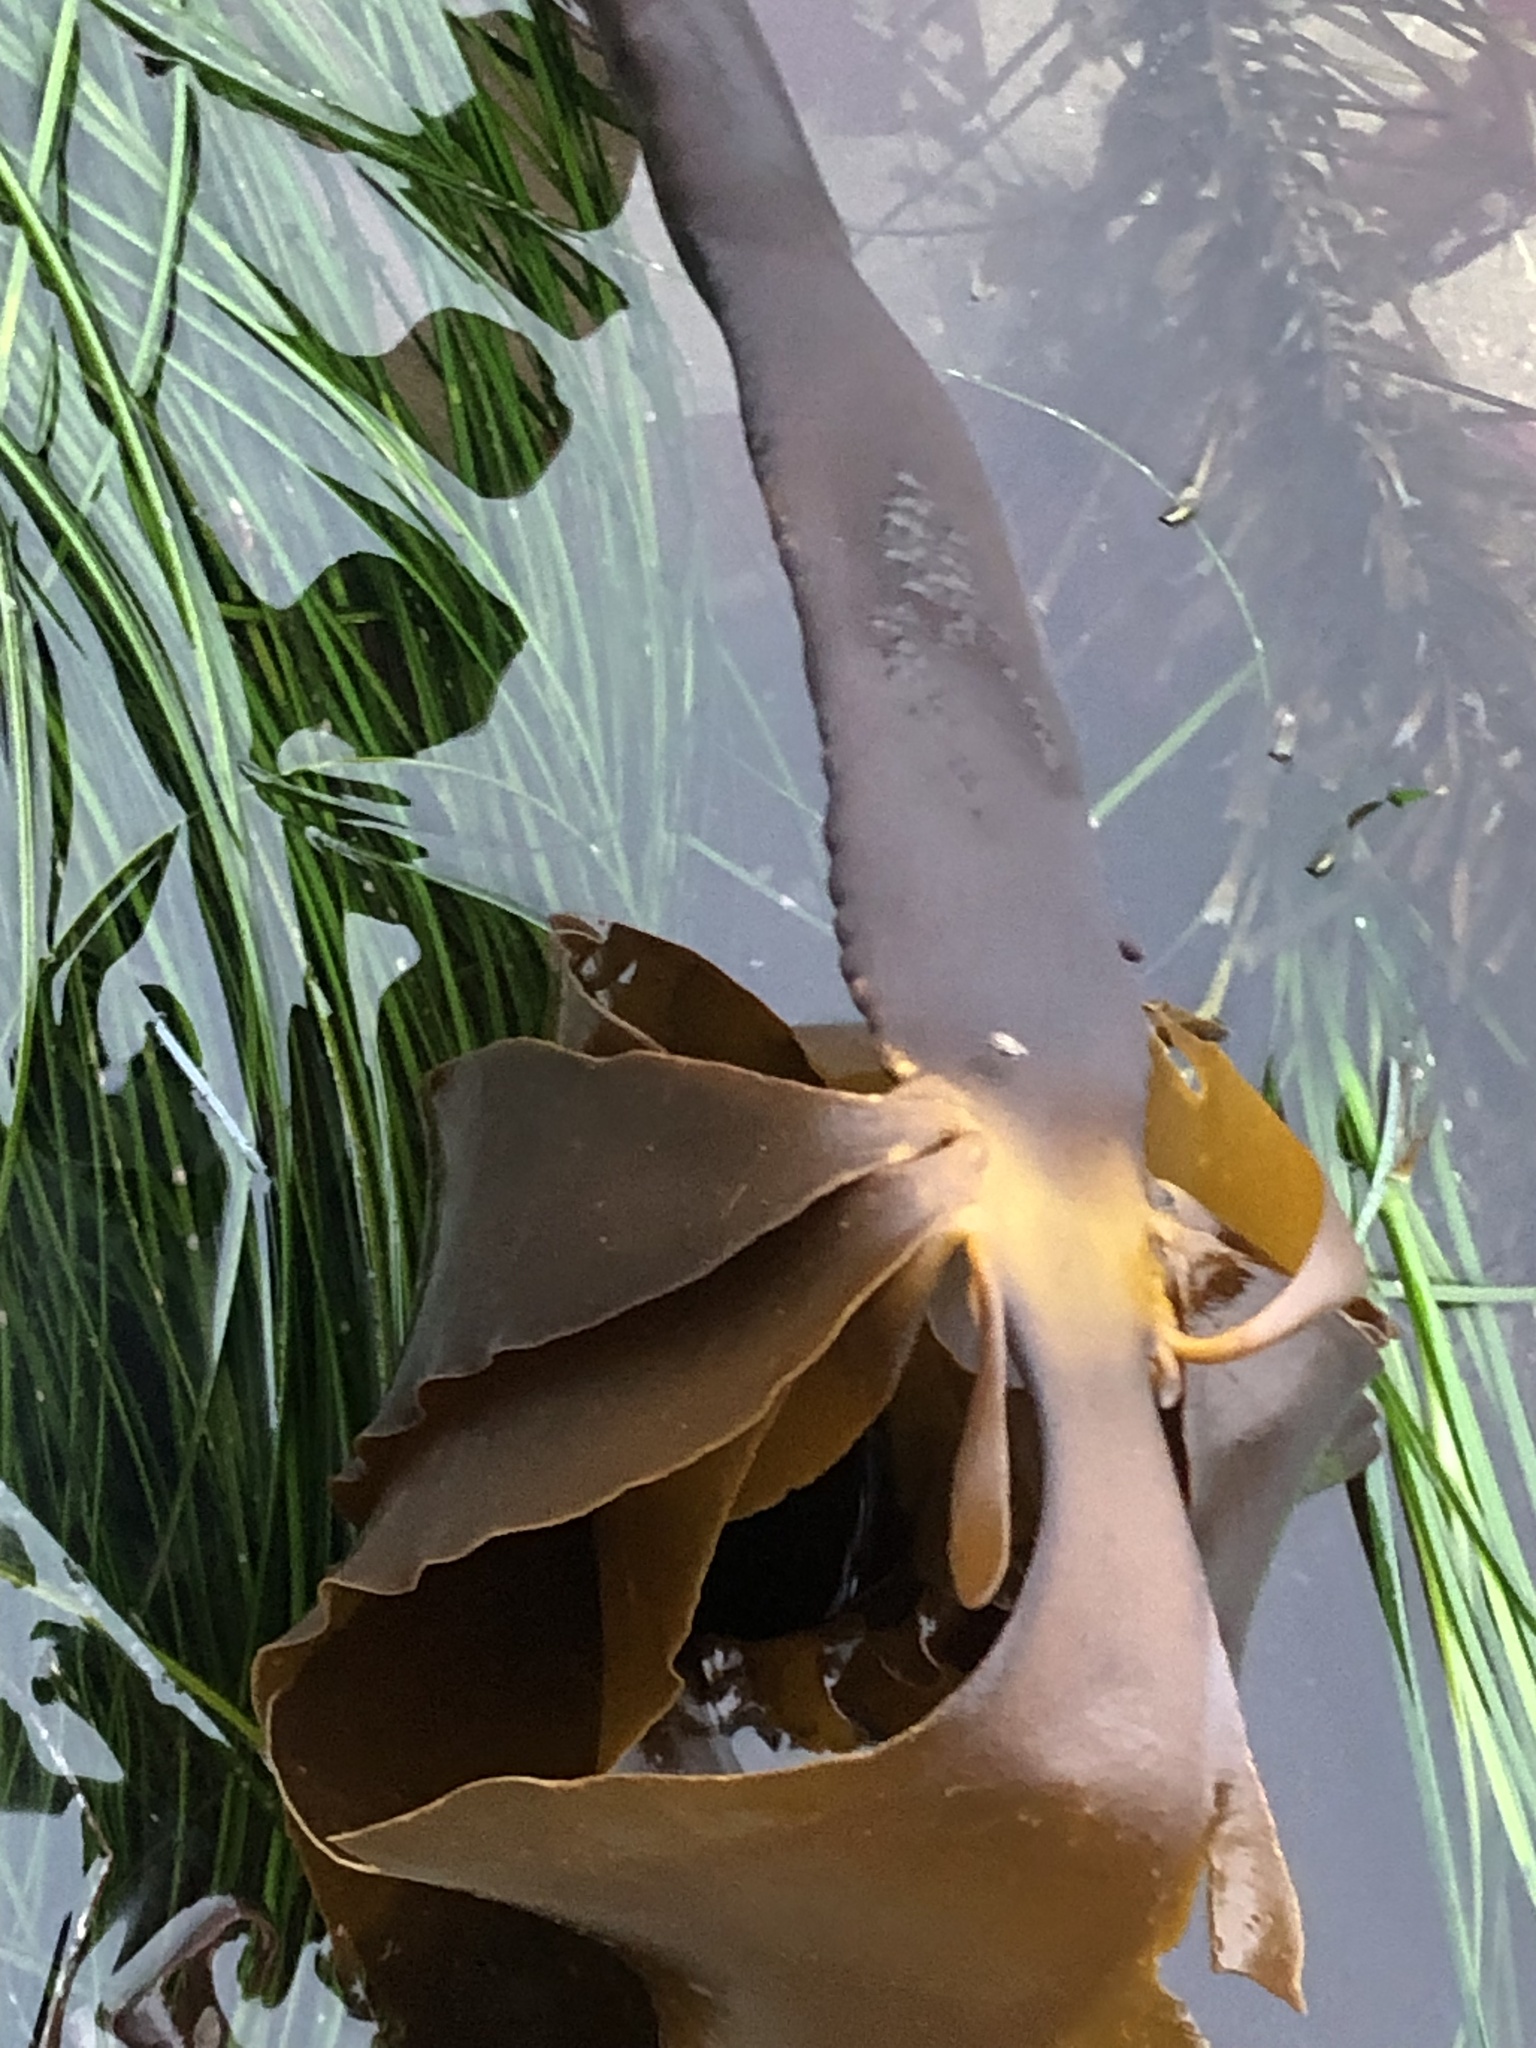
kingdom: Chromista
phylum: Ochrophyta
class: Phaeophyceae
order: Laminariales
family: Alariaceae
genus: Pterygophora
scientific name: Pterygophora californica
